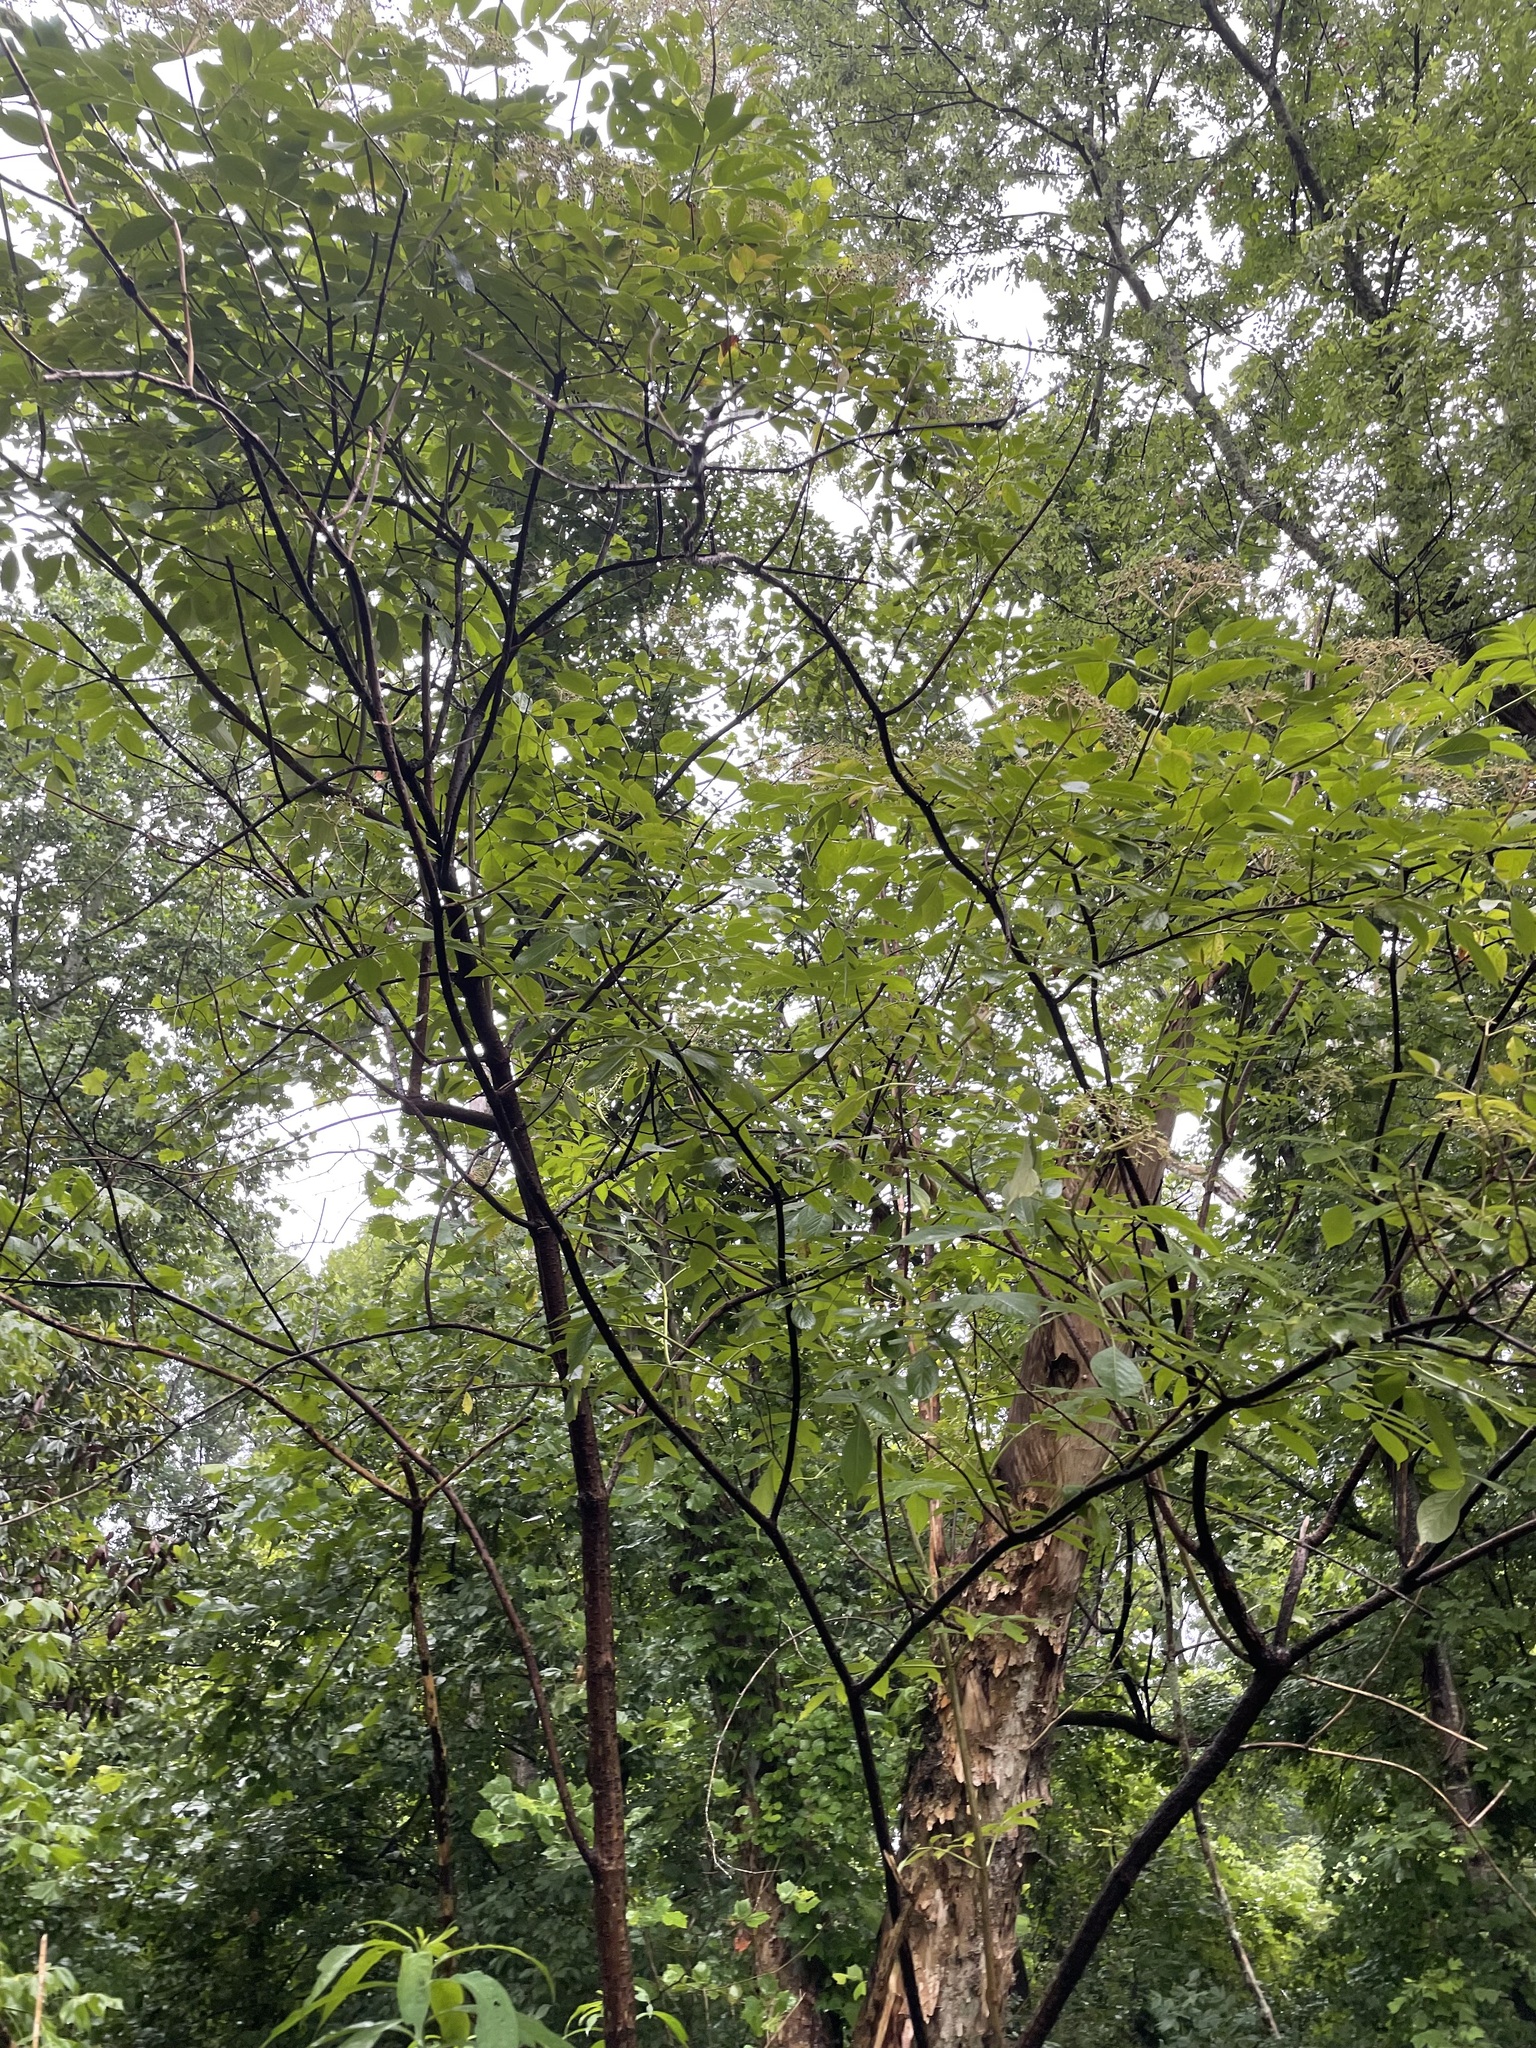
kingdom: Plantae
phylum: Tracheophyta
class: Magnoliopsida
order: Dipsacales
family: Viburnaceae
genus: Sambucus
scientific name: Sambucus canadensis
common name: American elder
